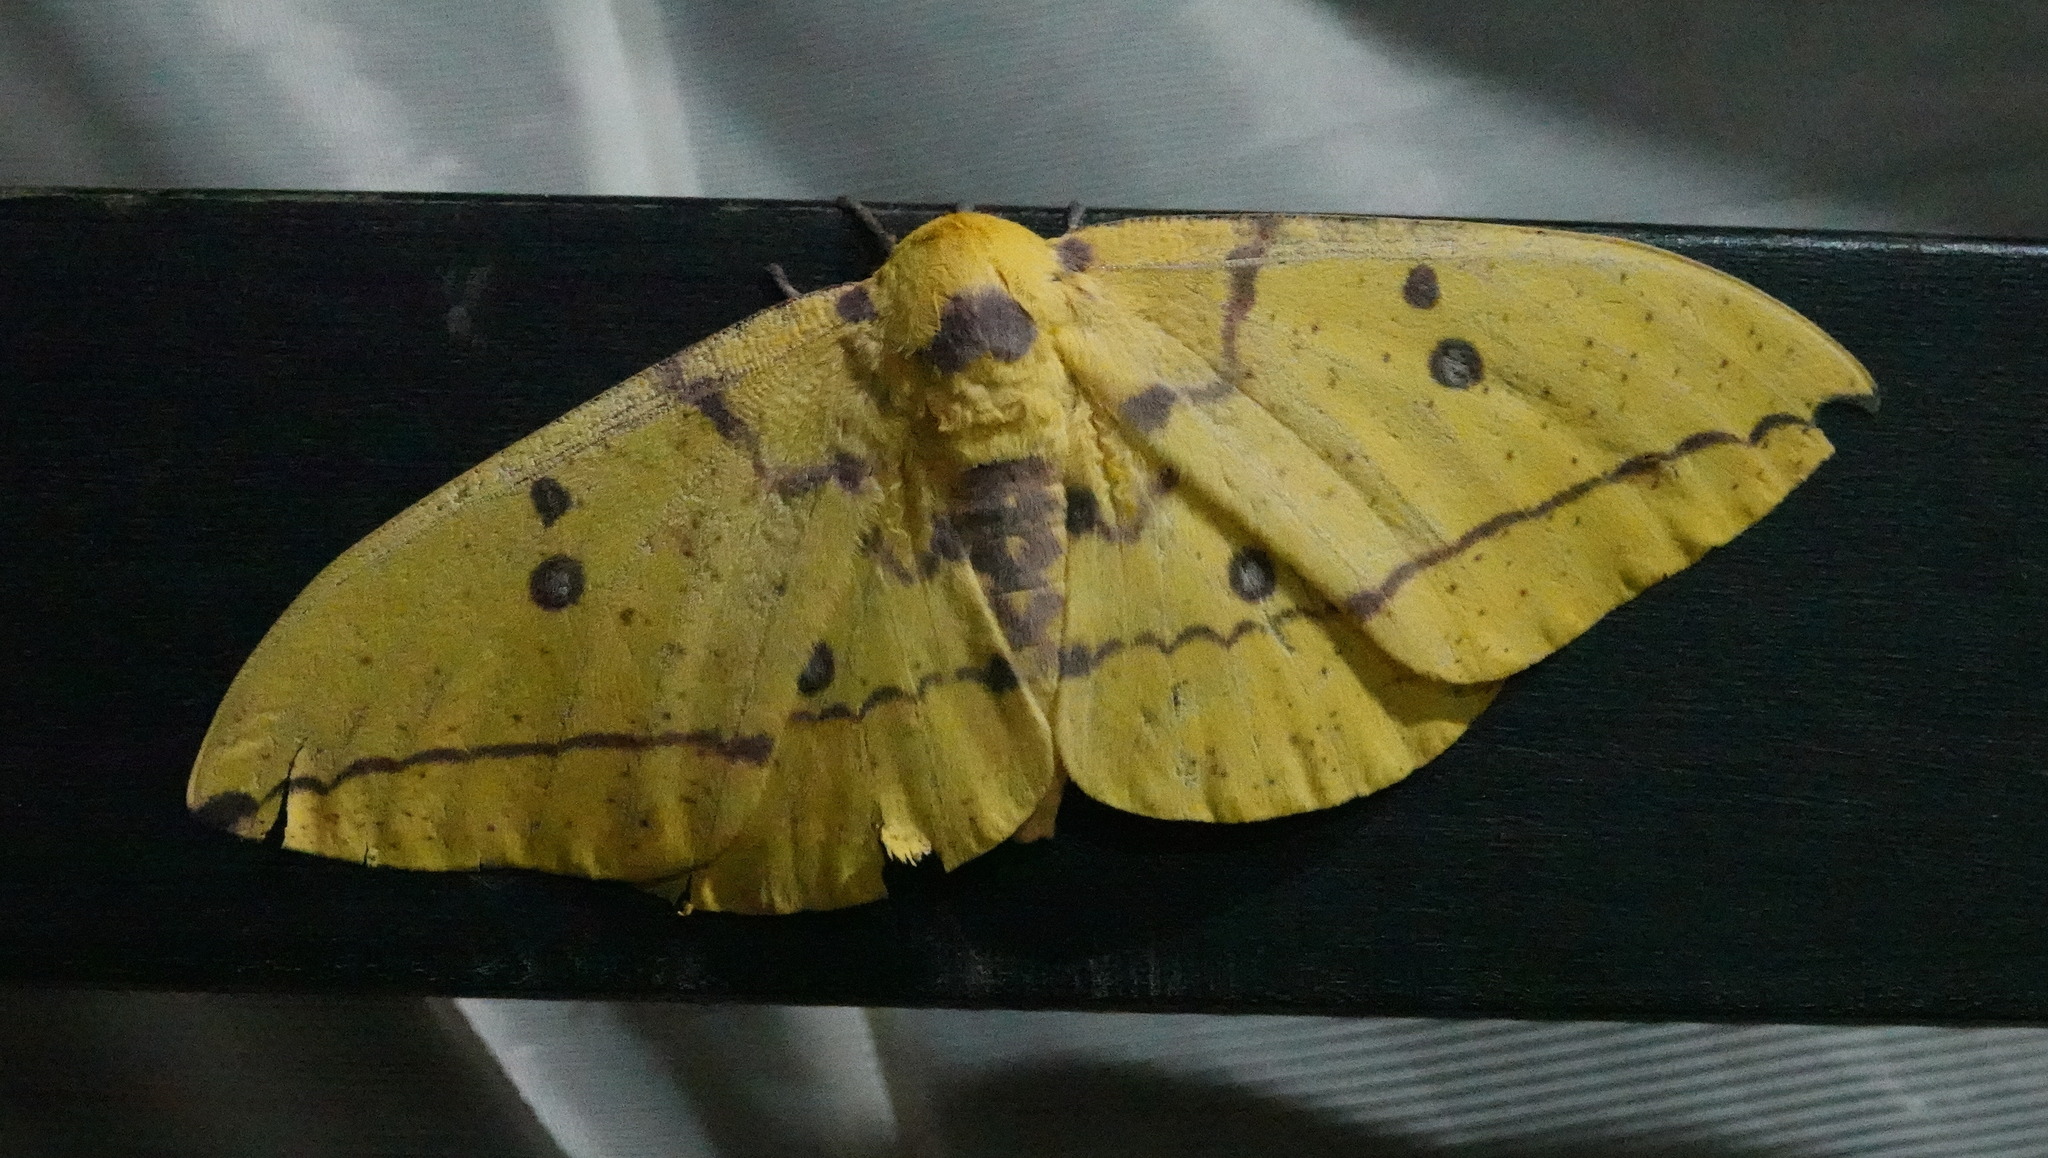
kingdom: Animalia
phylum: Arthropoda
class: Insecta
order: Lepidoptera
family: Saturniidae
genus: Eacles
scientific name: Eacles imperialis
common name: Imperial moth
